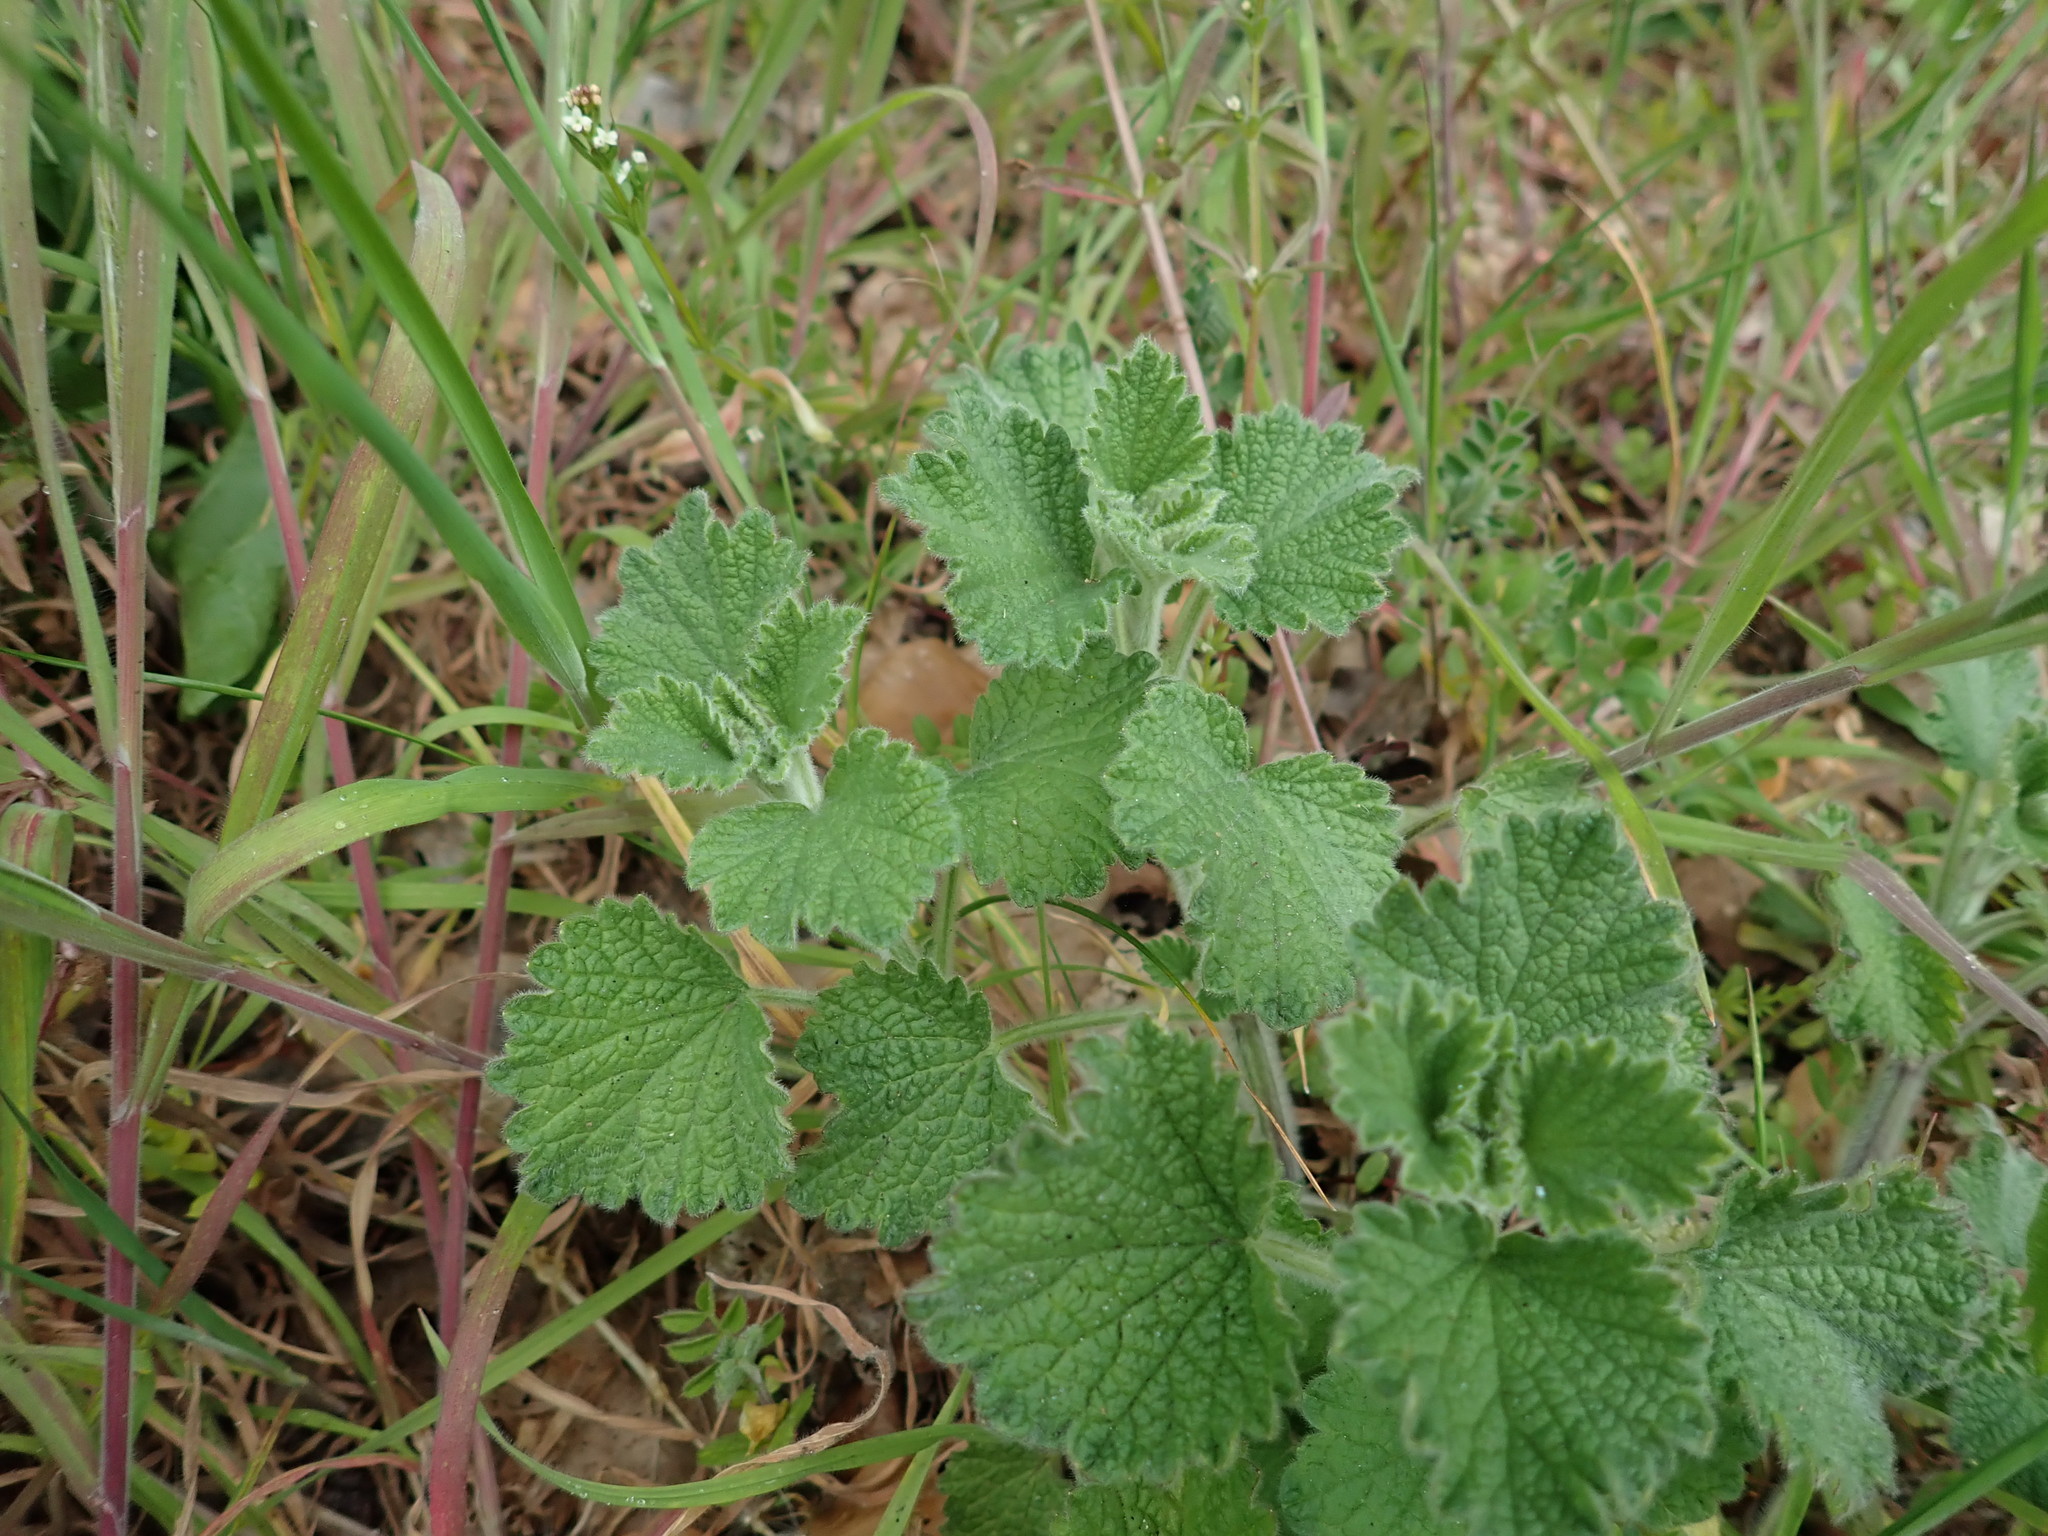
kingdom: Plantae
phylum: Tracheophyta
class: Magnoliopsida
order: Lamiales
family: Lamiaceae
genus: Ballota
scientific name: Ballota nigra
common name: Black horehound
